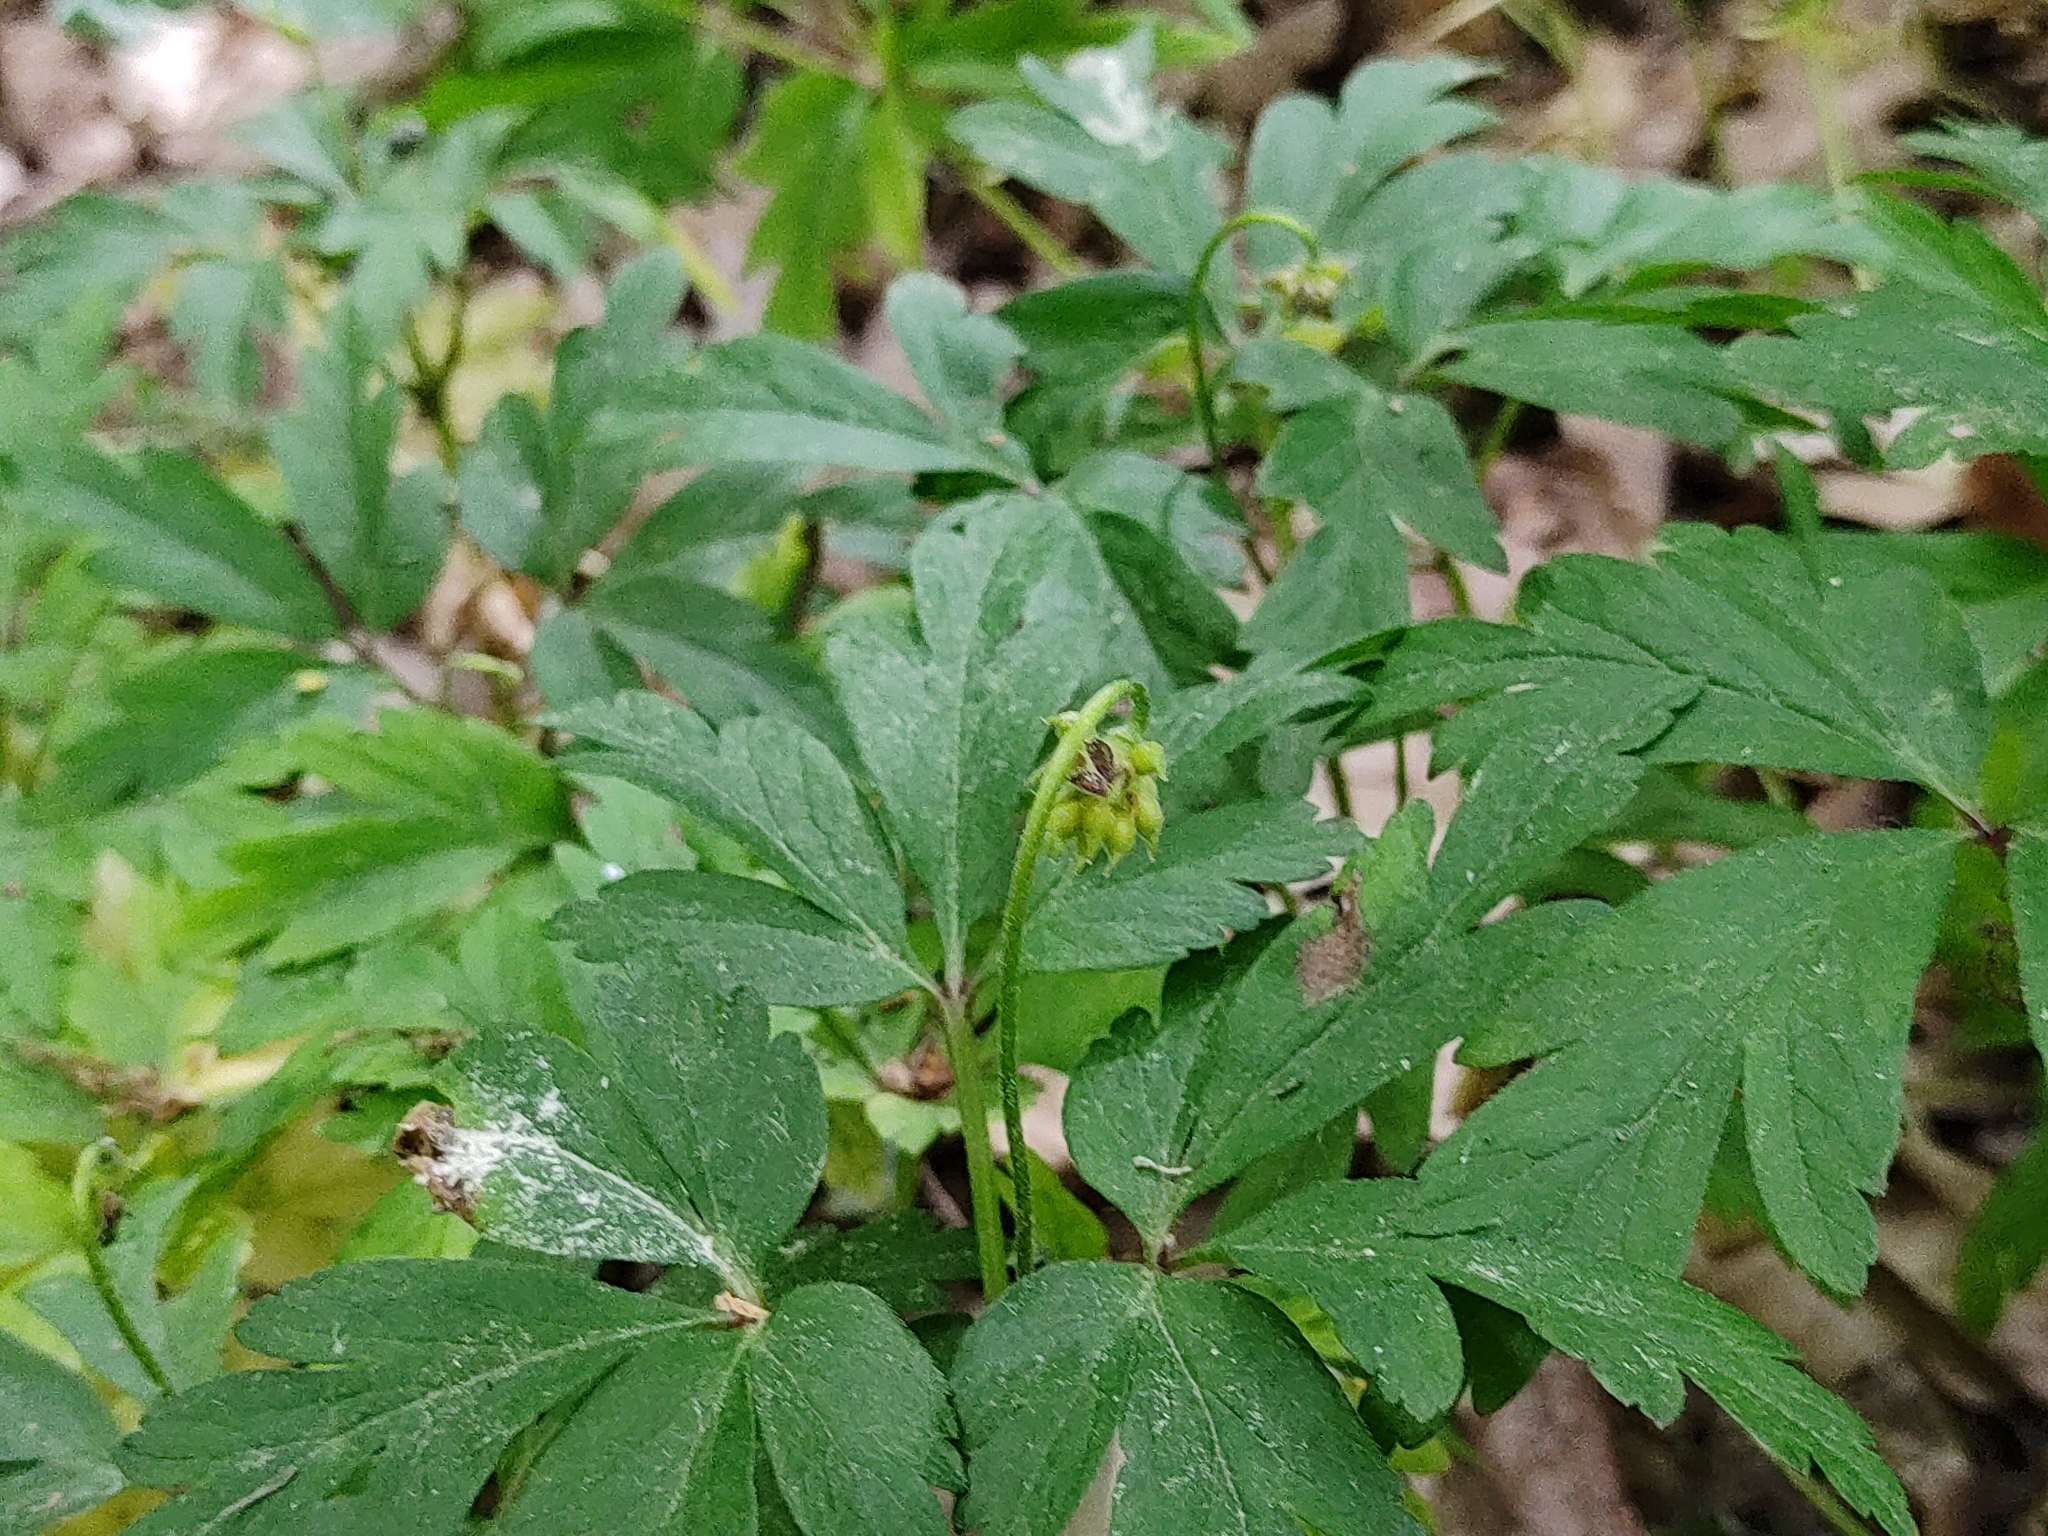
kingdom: Plantae
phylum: Tracheophyta
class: Magnoliopsida
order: Ranunculales
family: Ranunculaceae
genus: Anemone
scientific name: Anemone nemorosa
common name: Wood anemone
